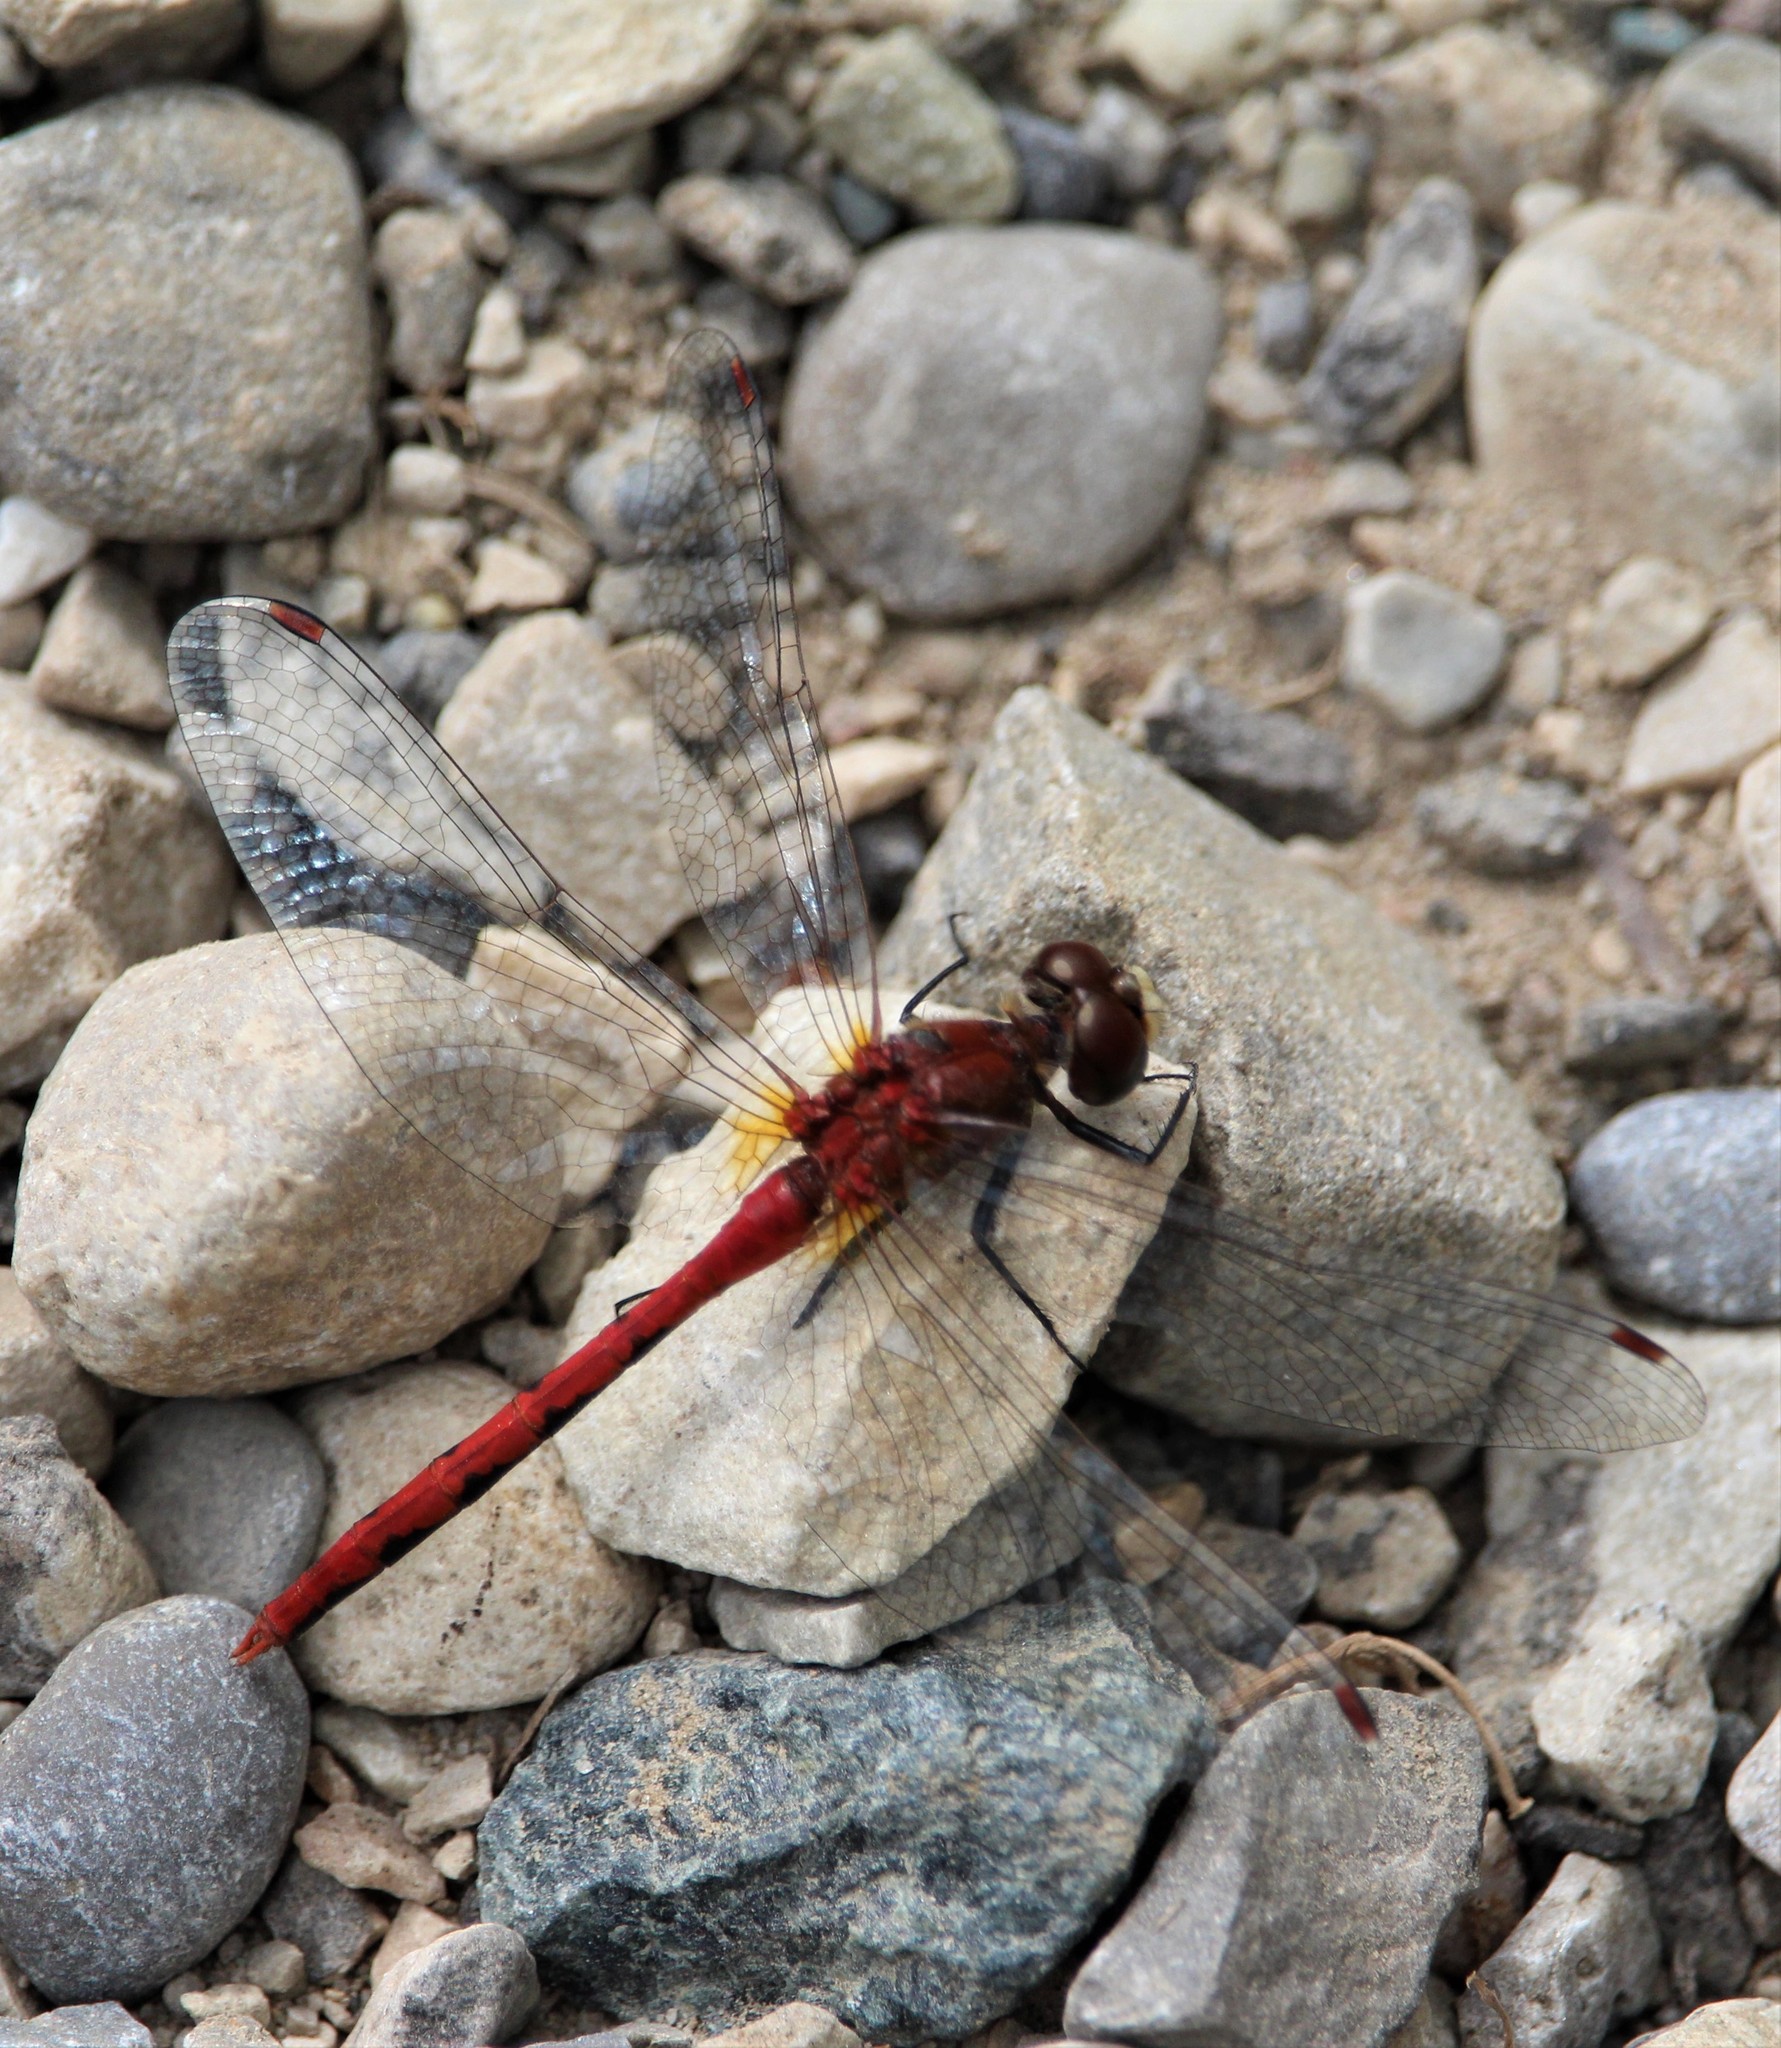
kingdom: Animalia
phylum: Arthropoda
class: Insecta
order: Odonata
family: Libellulidae
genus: Sympetrum
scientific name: Sympetrum rubicundulum
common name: Ruby meadowhawk
